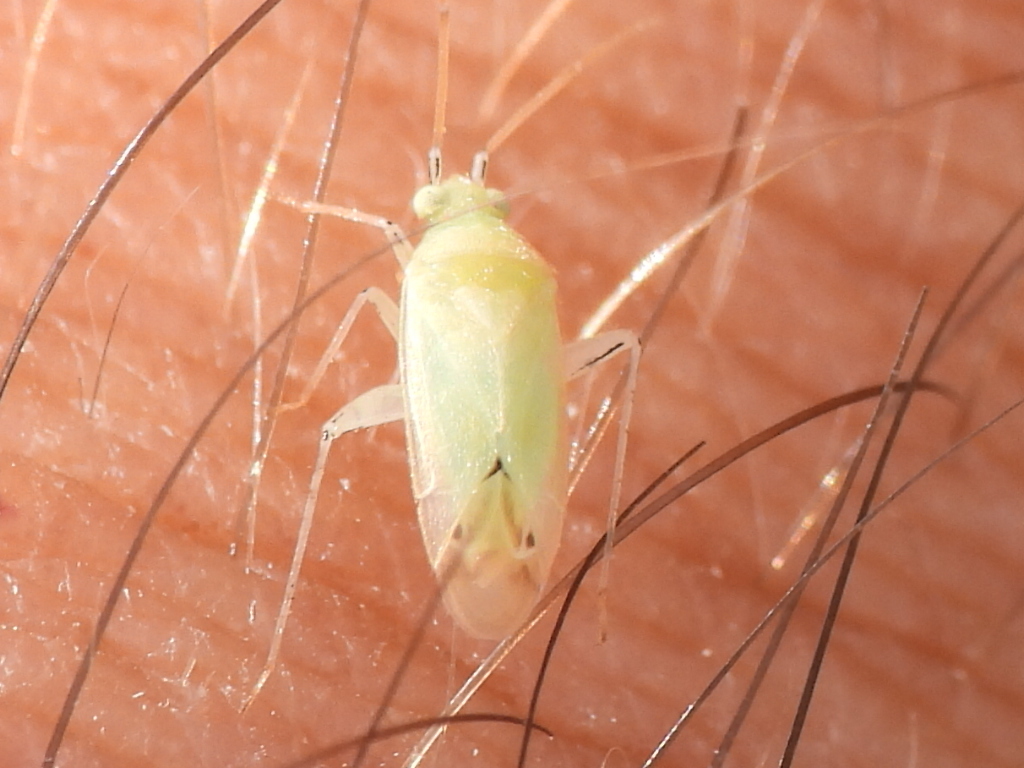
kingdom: Animalia
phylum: Arthropoda
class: Insecta
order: Hemiptera
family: Miridae
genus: Pseudatomoscelis
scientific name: Pseudatomoscelis seriatus
